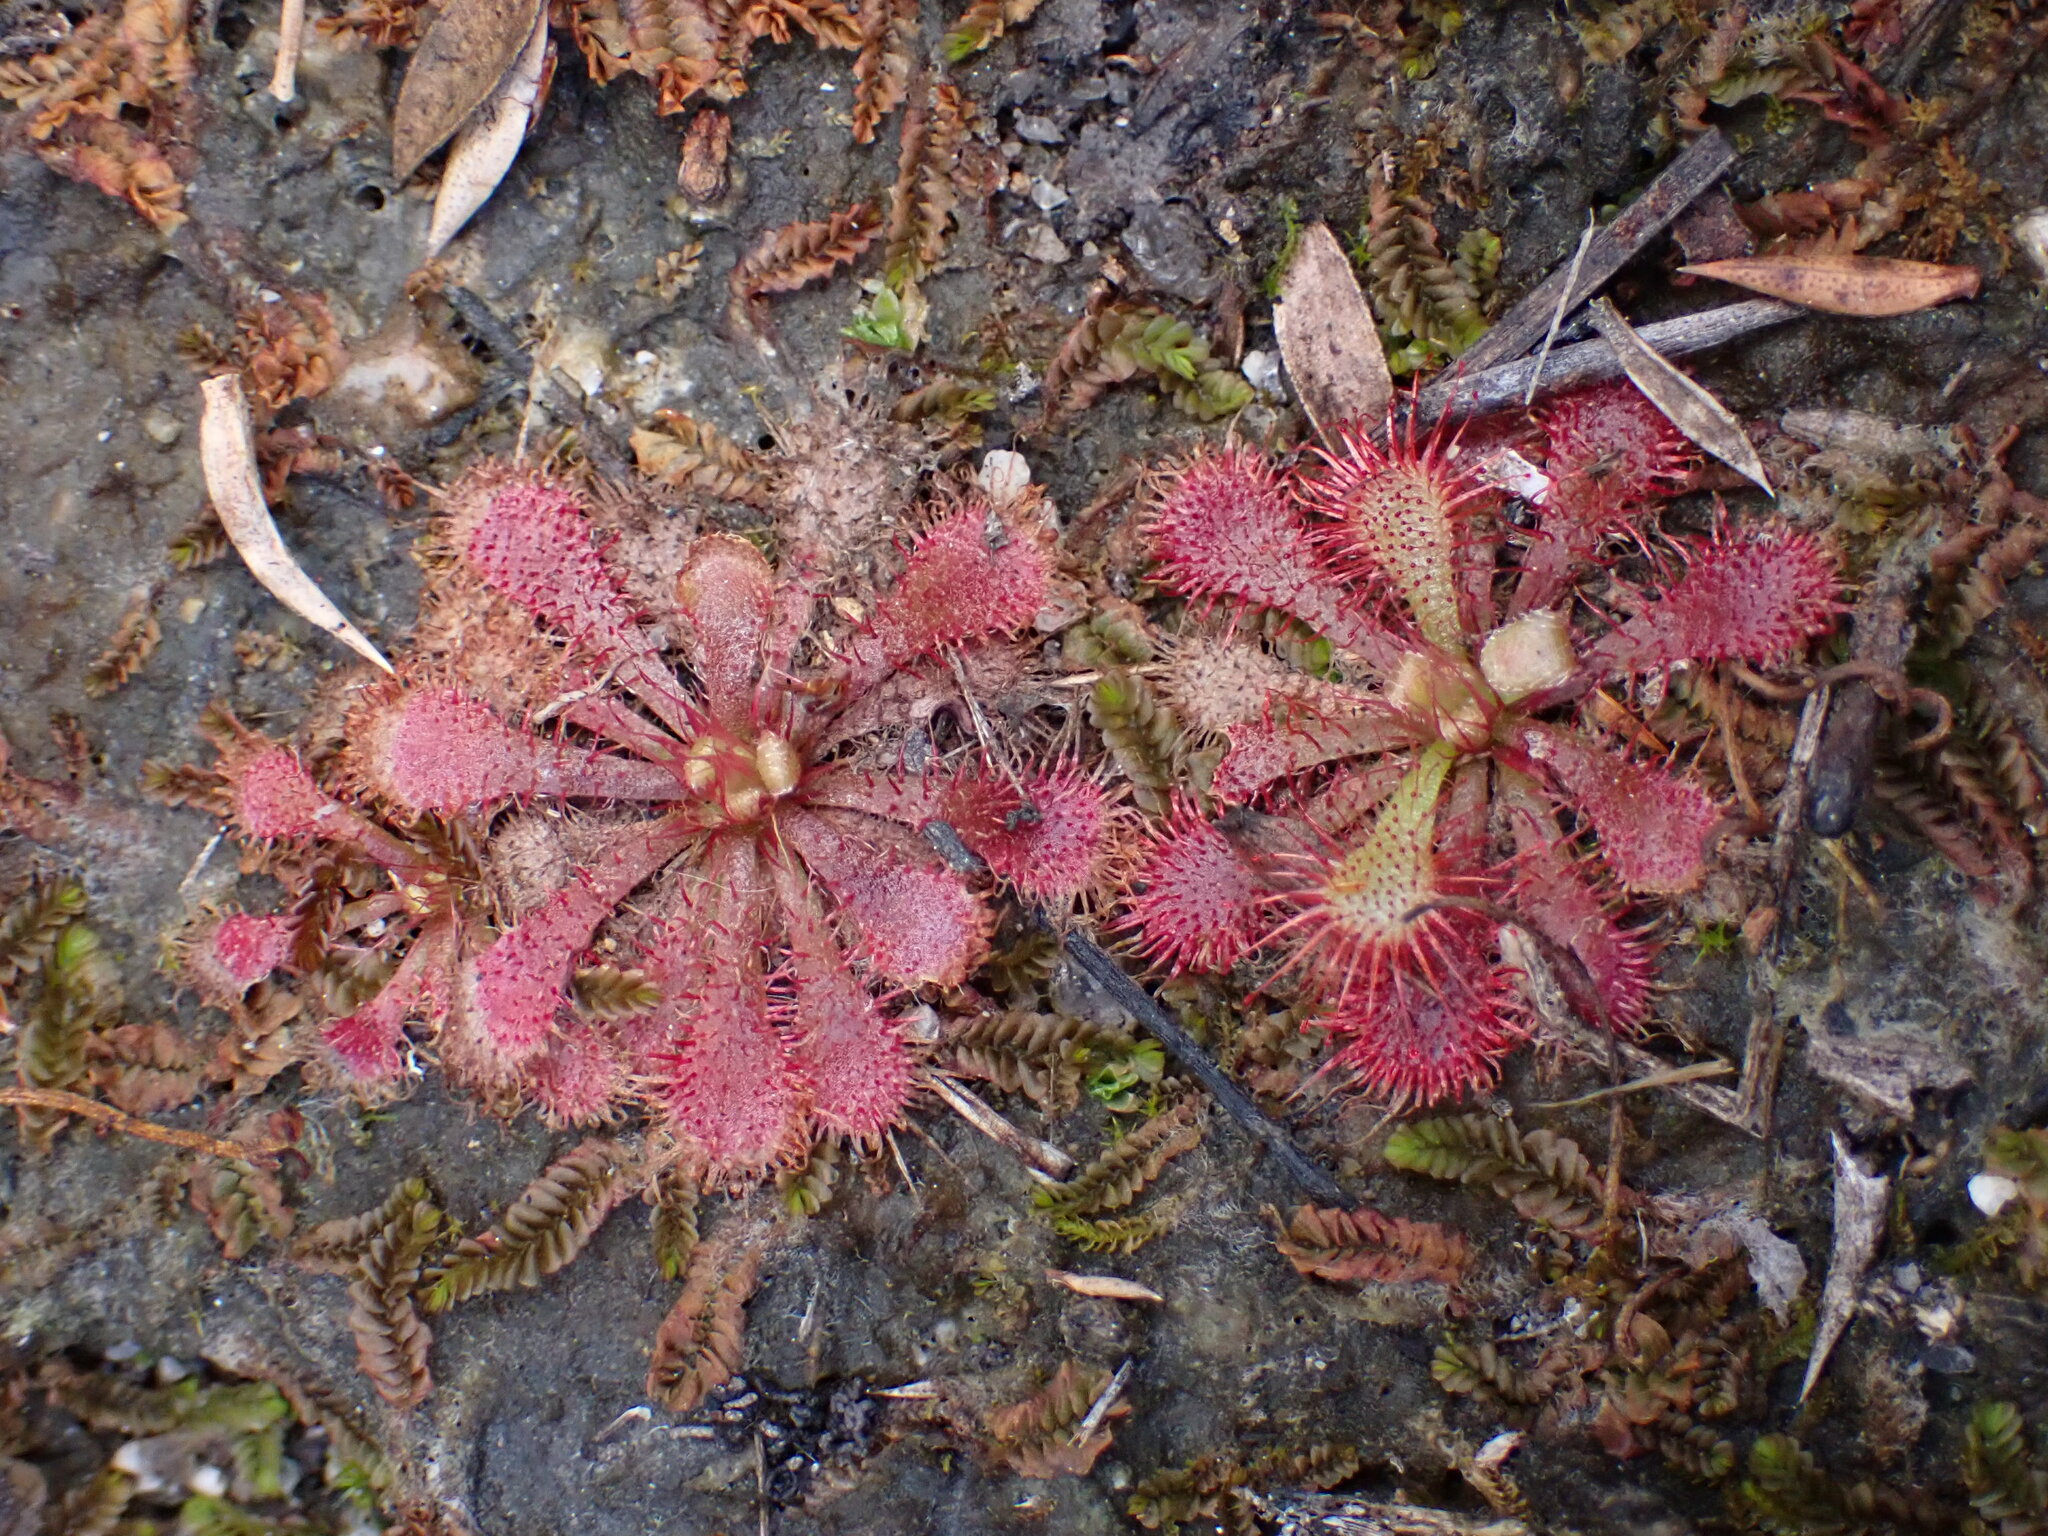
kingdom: Plantae
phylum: Tracheophyta
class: Magnoliopsida
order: Caryophyllales
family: Droseraceae
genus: Drosera
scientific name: Drosera spatulata
